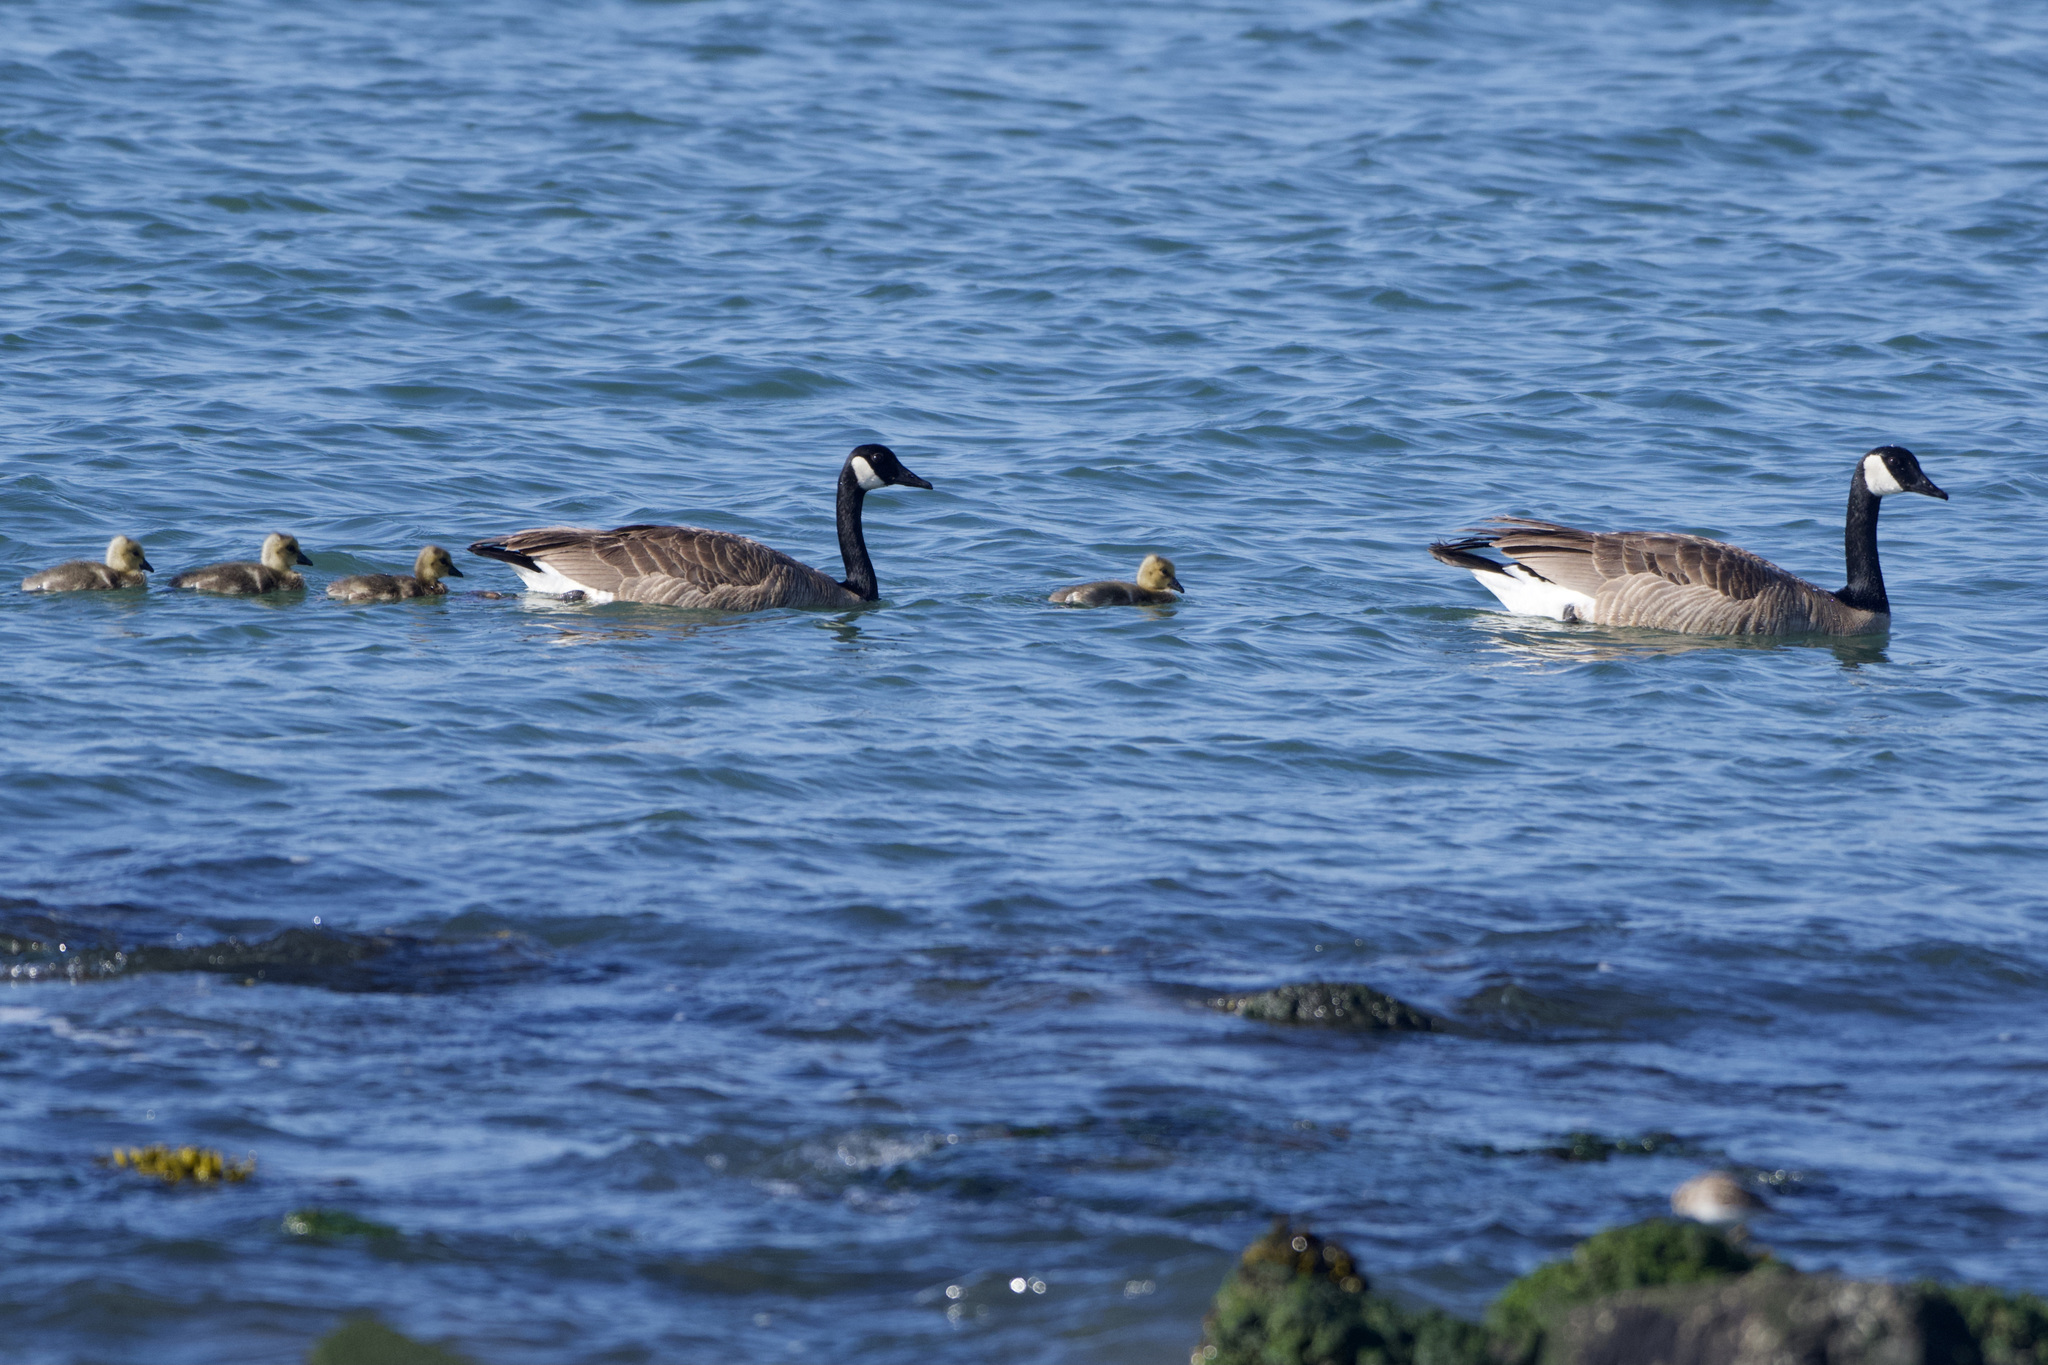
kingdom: Animalia
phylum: Chordata
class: Aves
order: Anseriformes
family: Anatidae
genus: Branta
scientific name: Branta canadensis
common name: Canada goose
